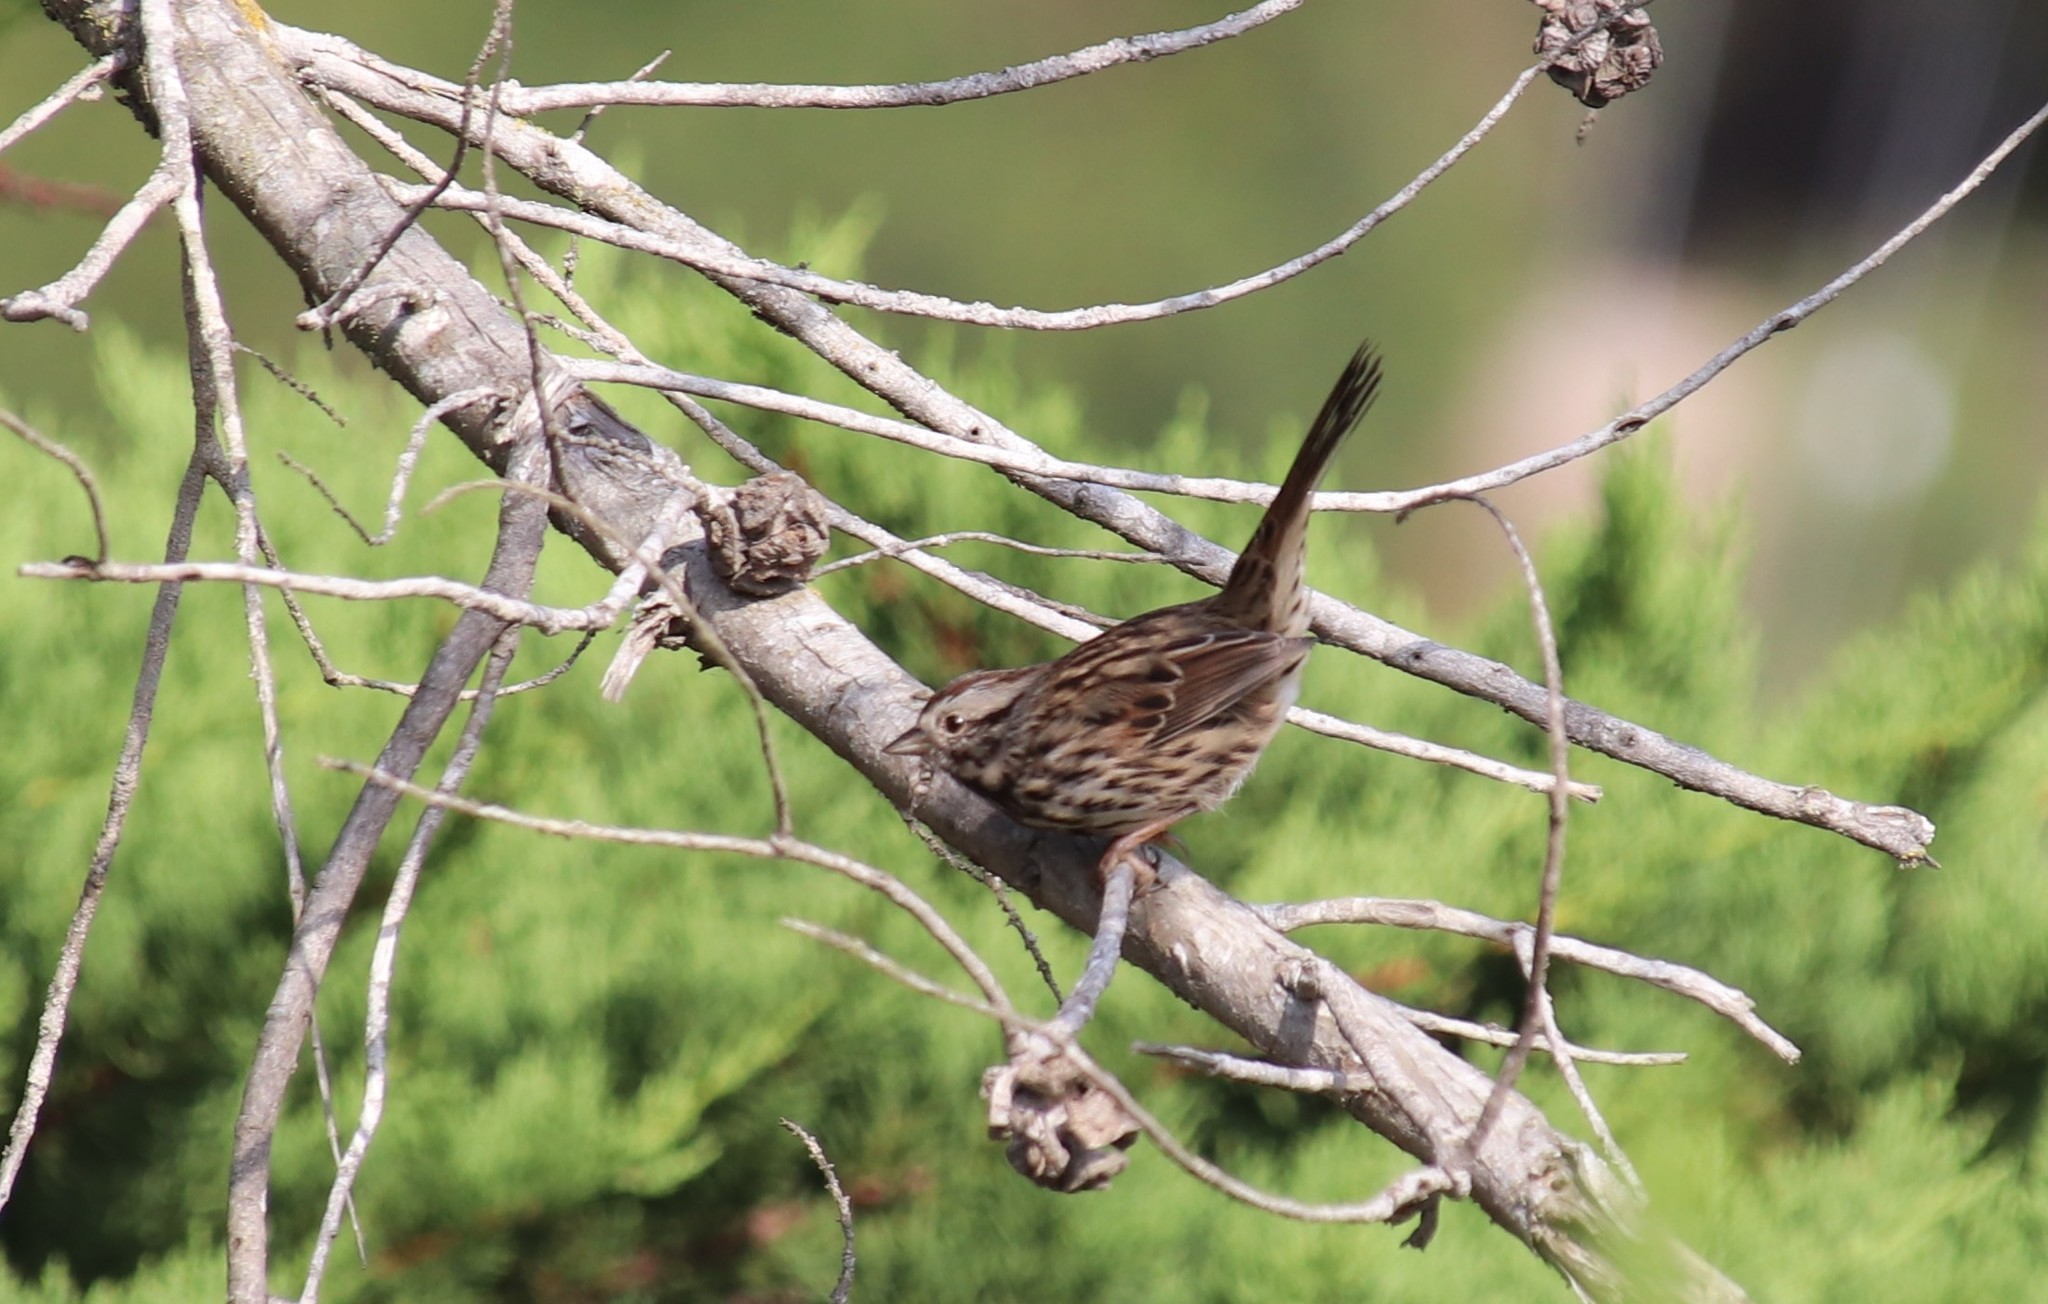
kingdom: Animalia
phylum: Chordata
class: Aves
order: Passeriformes
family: Passerellidae
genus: Melospiza
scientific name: Melospiza melodia
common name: Song sparrow
